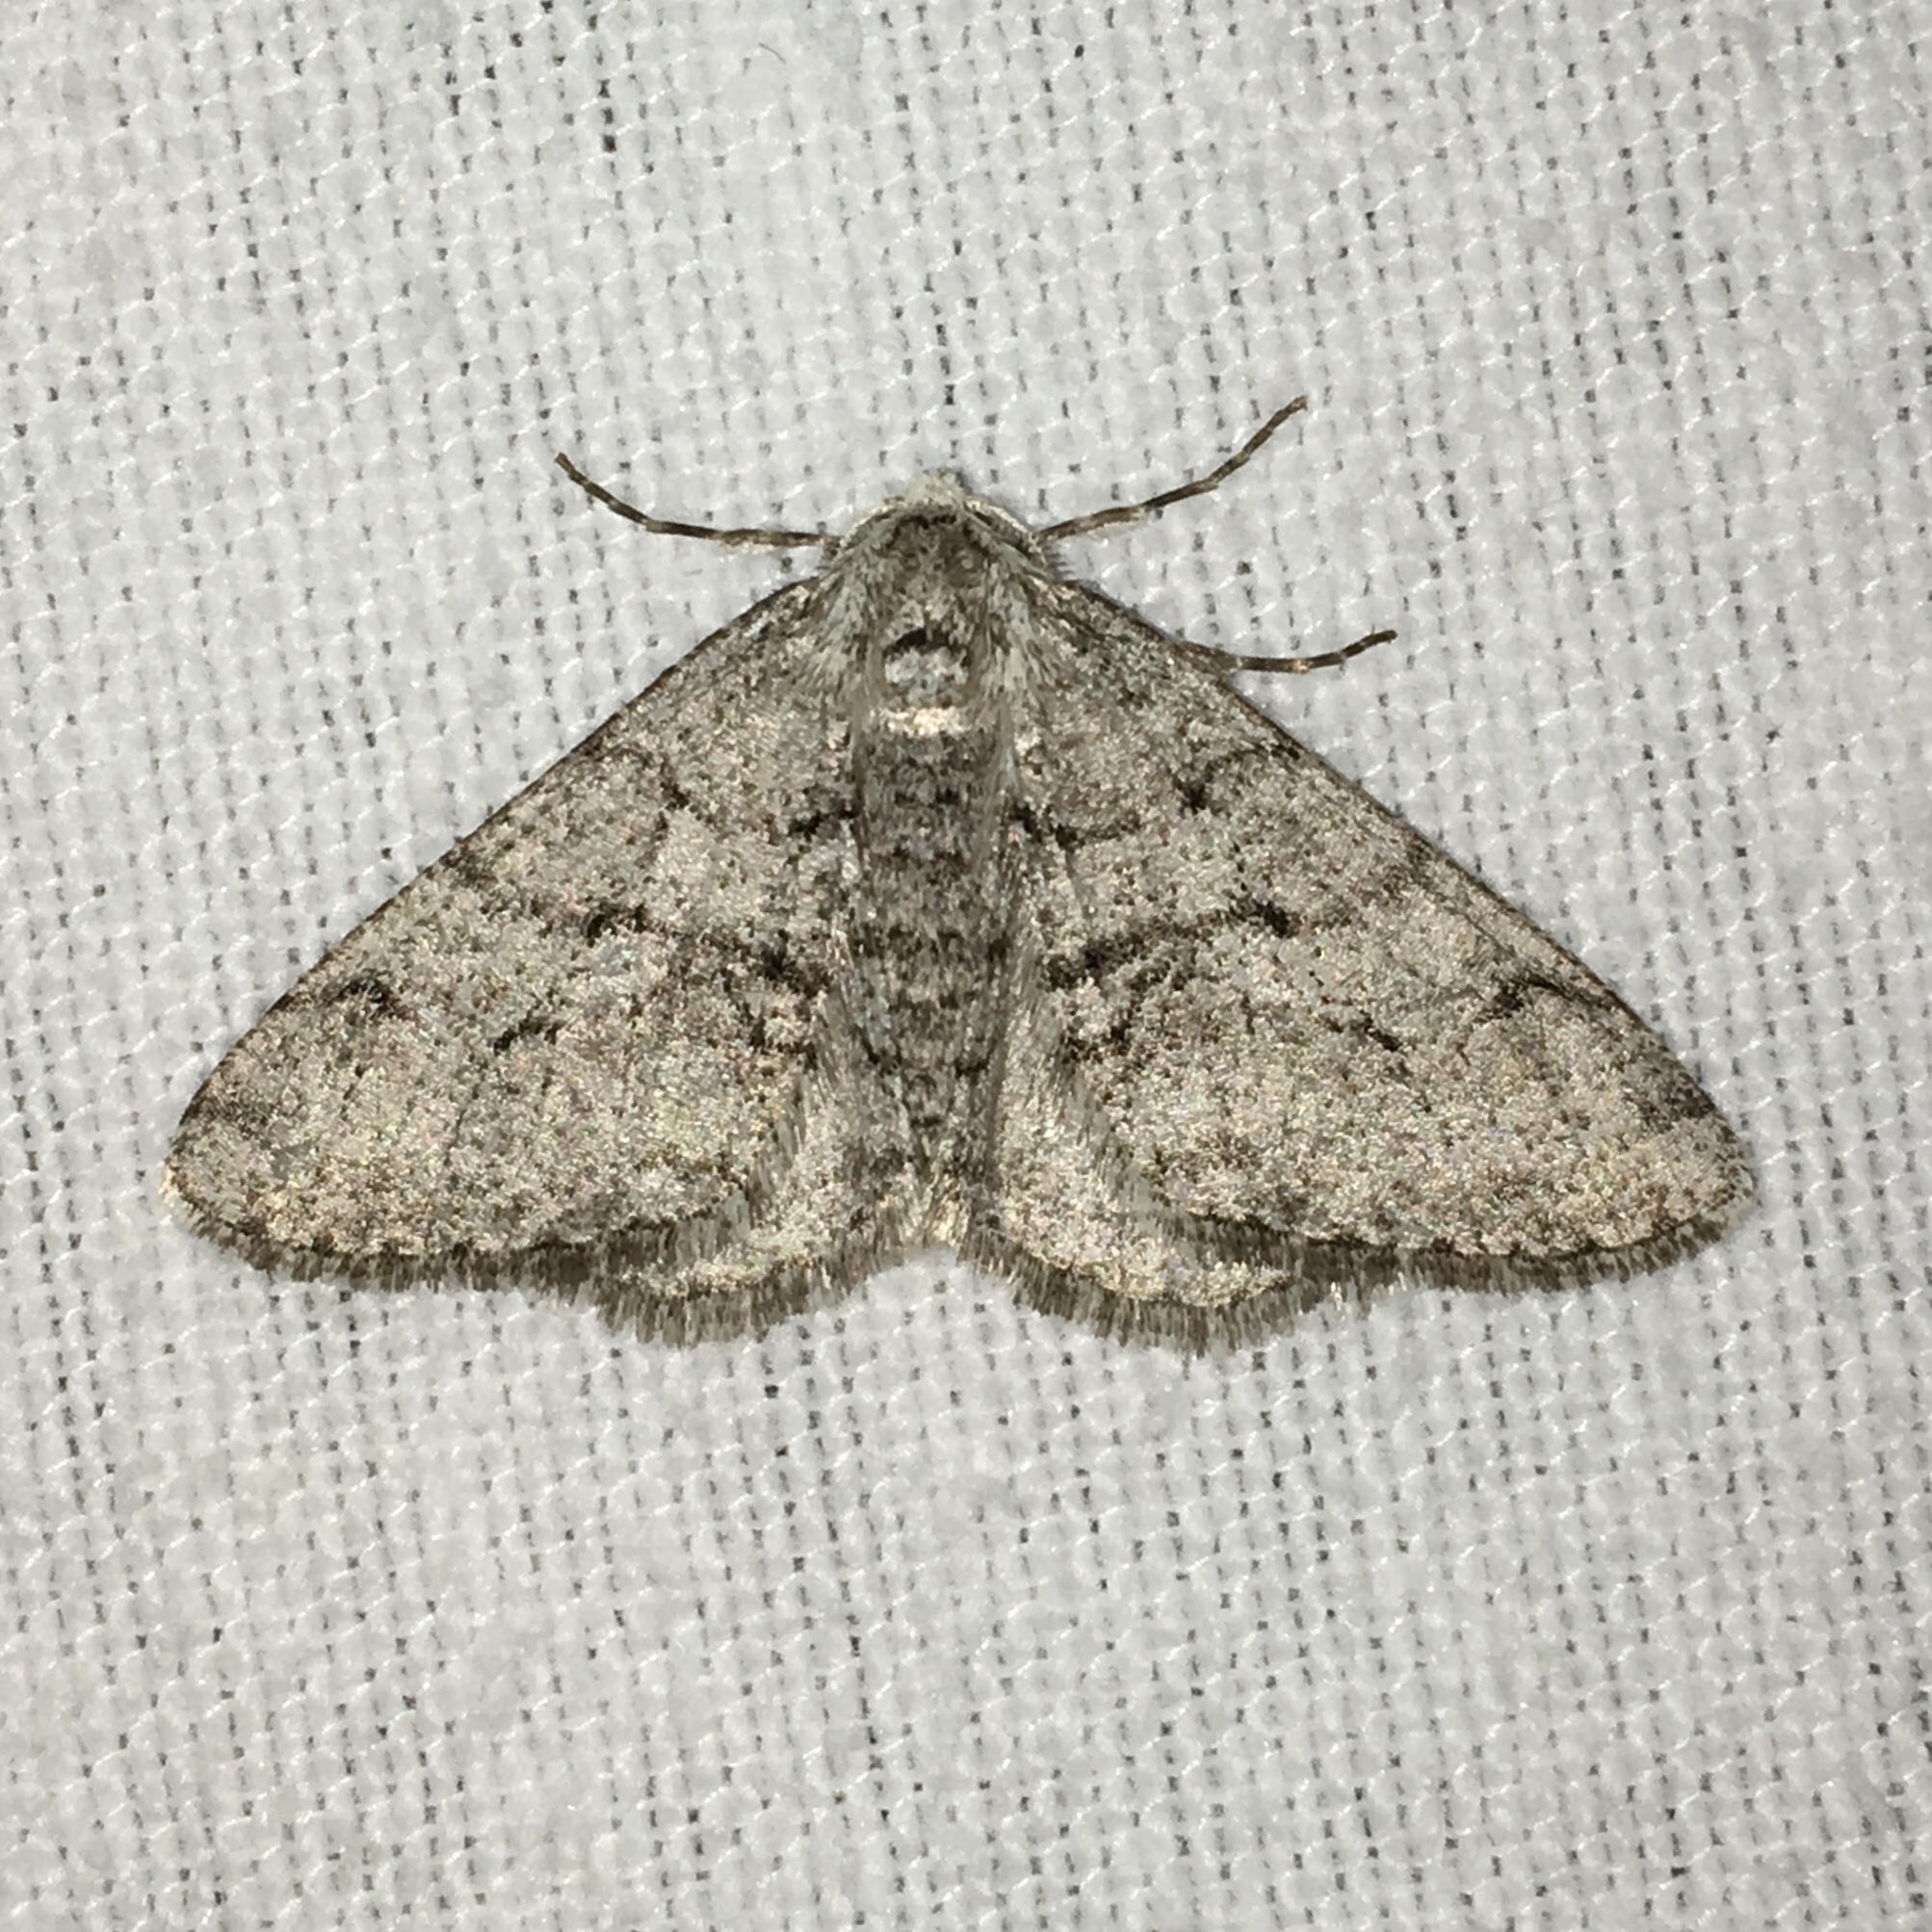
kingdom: Animalia
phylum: Arthropoda
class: Insecta
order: Lepidoptera
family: Geometridae
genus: Phigalia
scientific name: Phigalia titea
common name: Spiny looper
